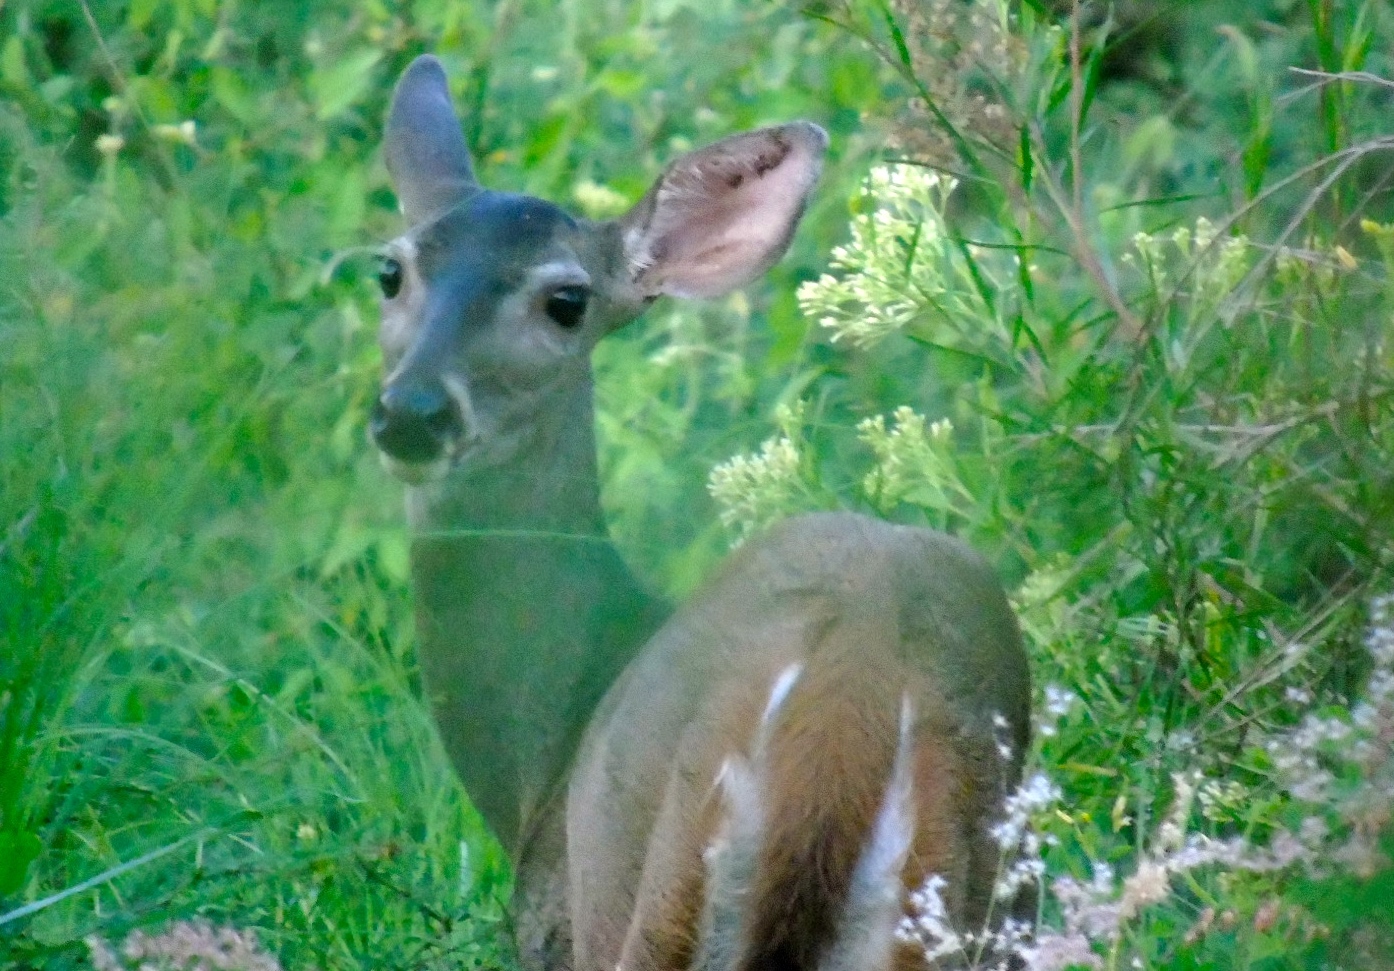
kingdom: Animalia
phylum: Chordata
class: Mammalia
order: Artiodactyla
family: Cervidae
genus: Odocoileus
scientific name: Odocoileus virginianus
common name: White-tailed deer
